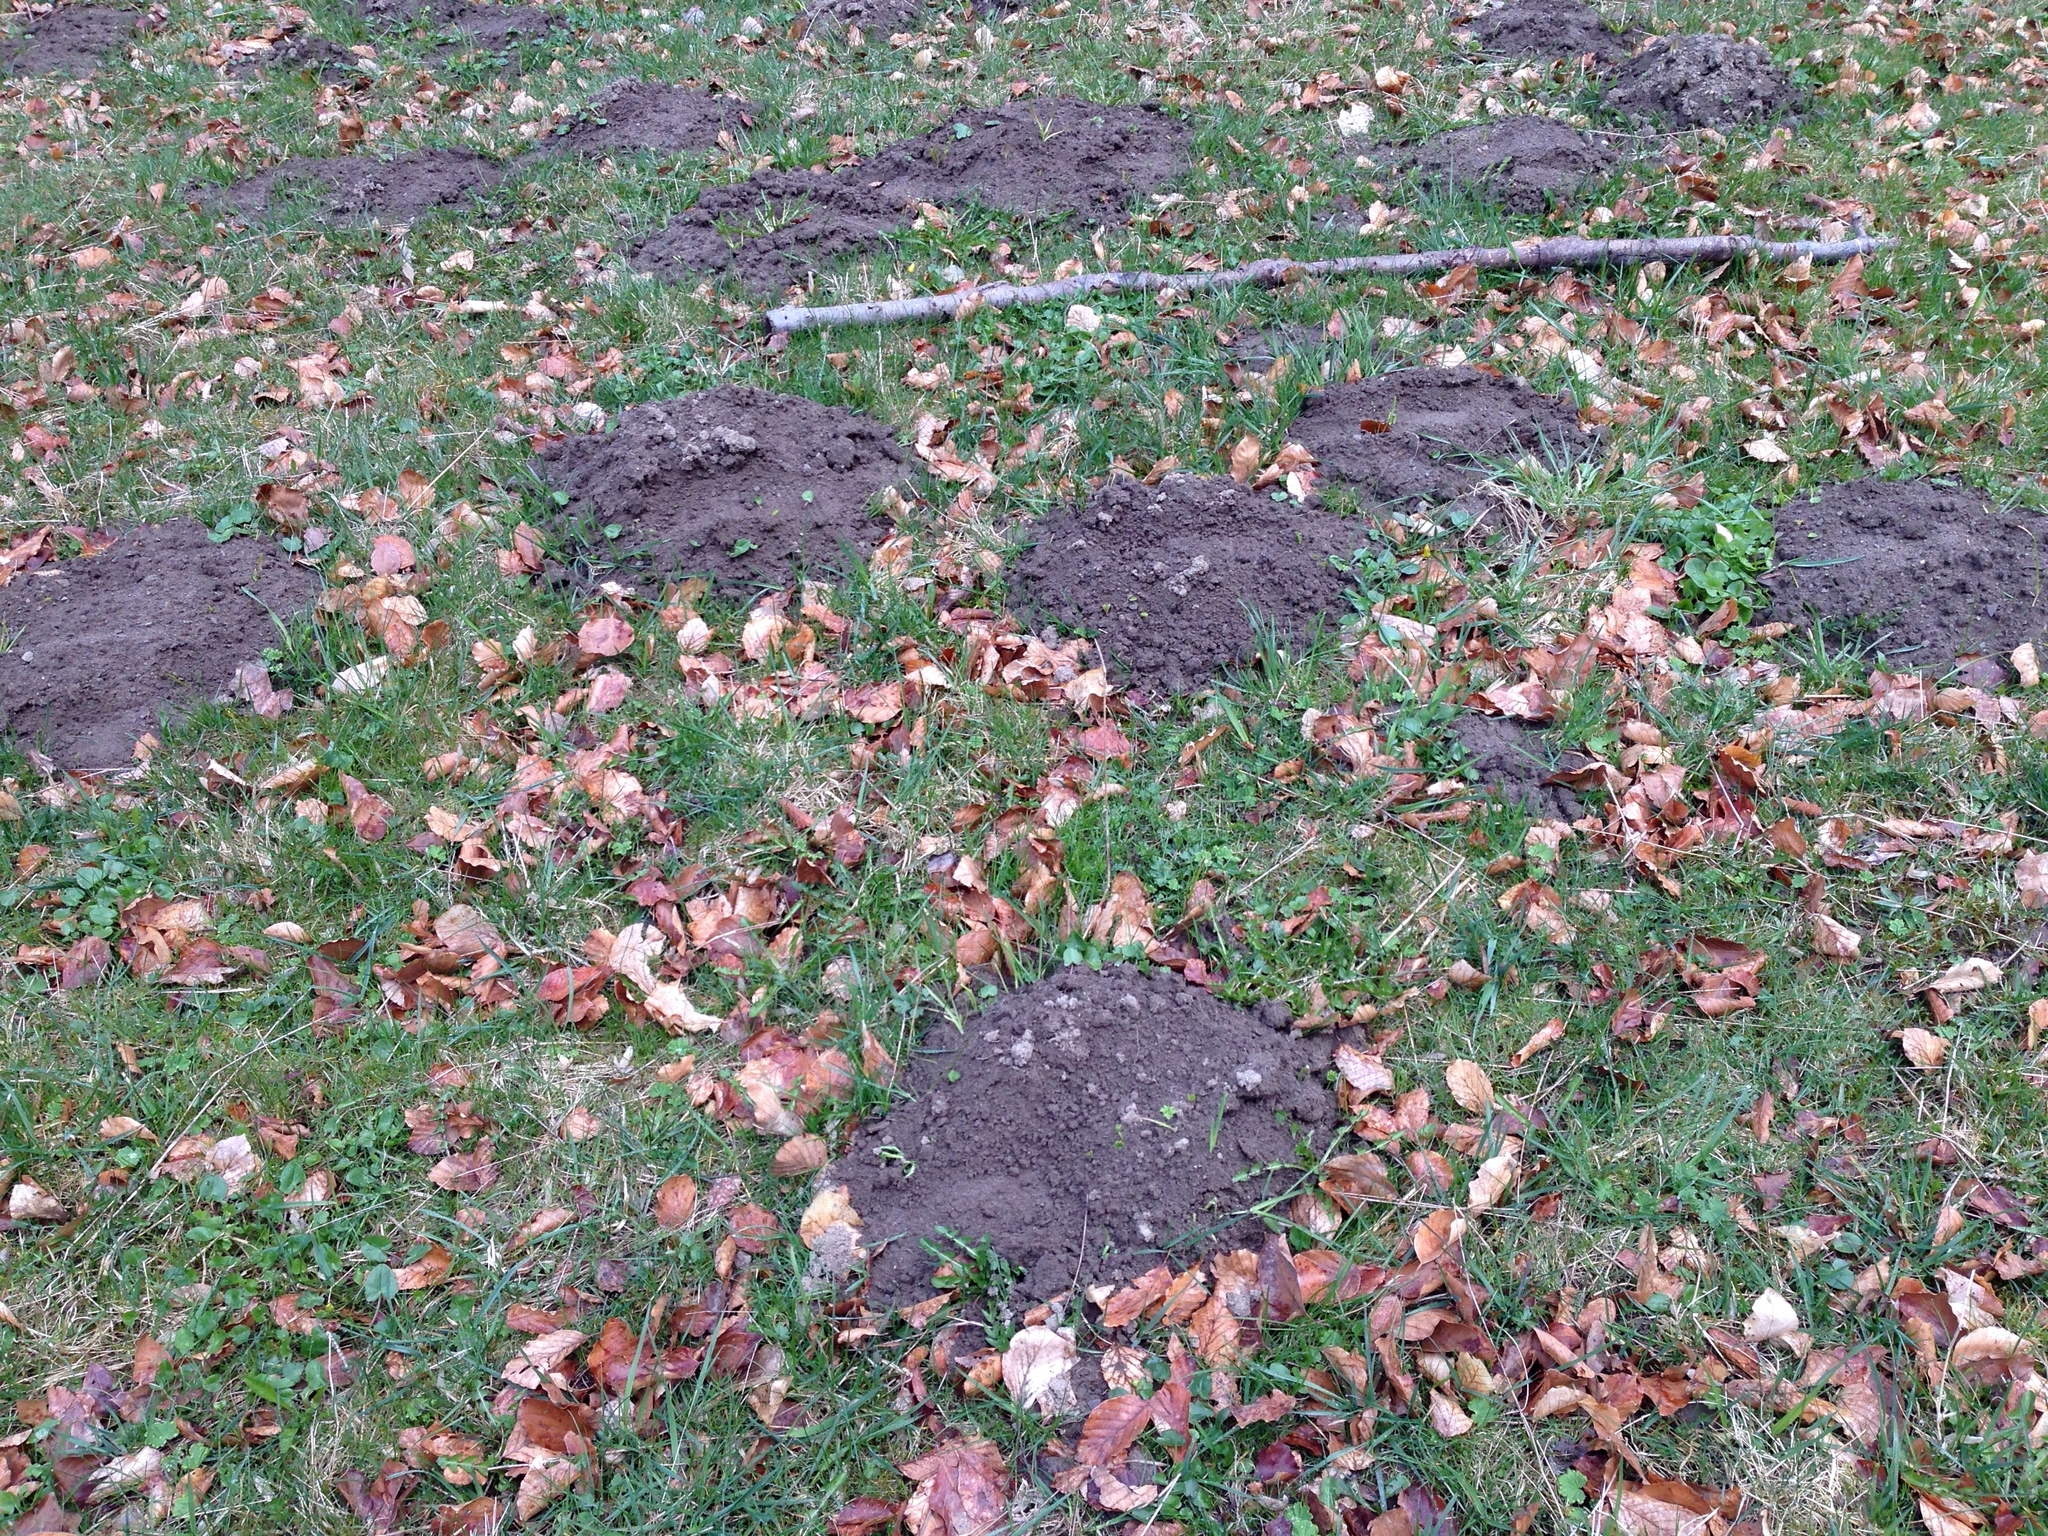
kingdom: Animalia
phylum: Chordata
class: Mammalia
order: Soricomorpha
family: Talpidae
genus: Talpa
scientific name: Talpa europaea
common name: European mole
